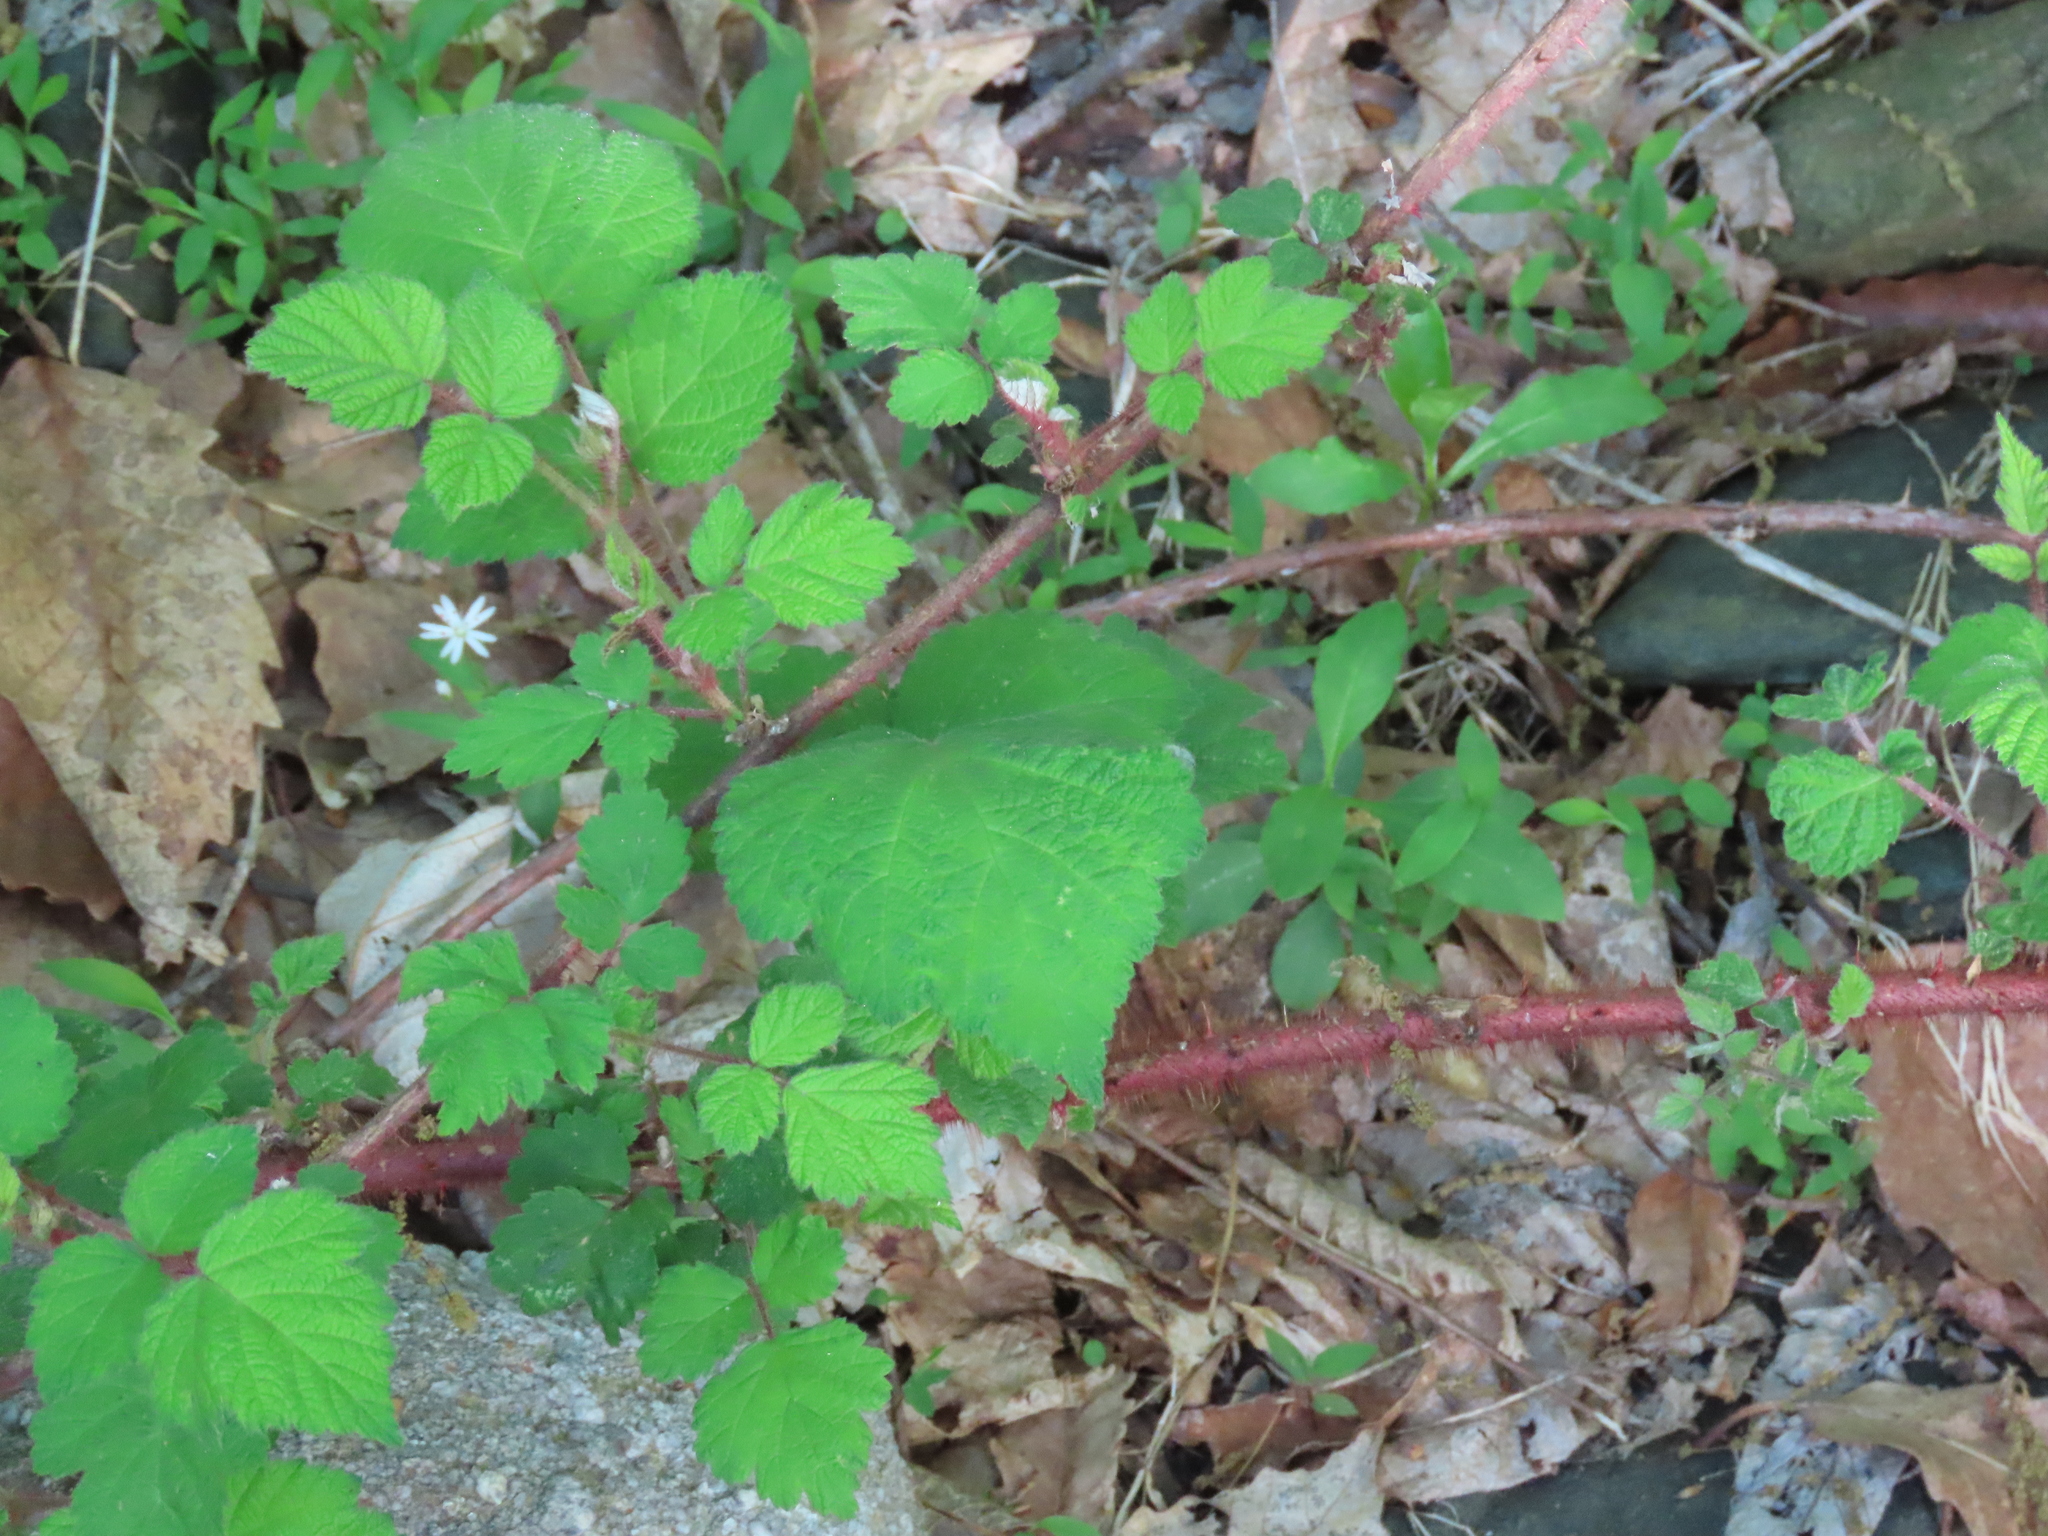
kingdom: Plantae
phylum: Tracheophyta
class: Magnoliopsida
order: Rosales
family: Rosaceae
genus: Rubus
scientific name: Rubus phoenicolasius
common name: Japanese wineberry
